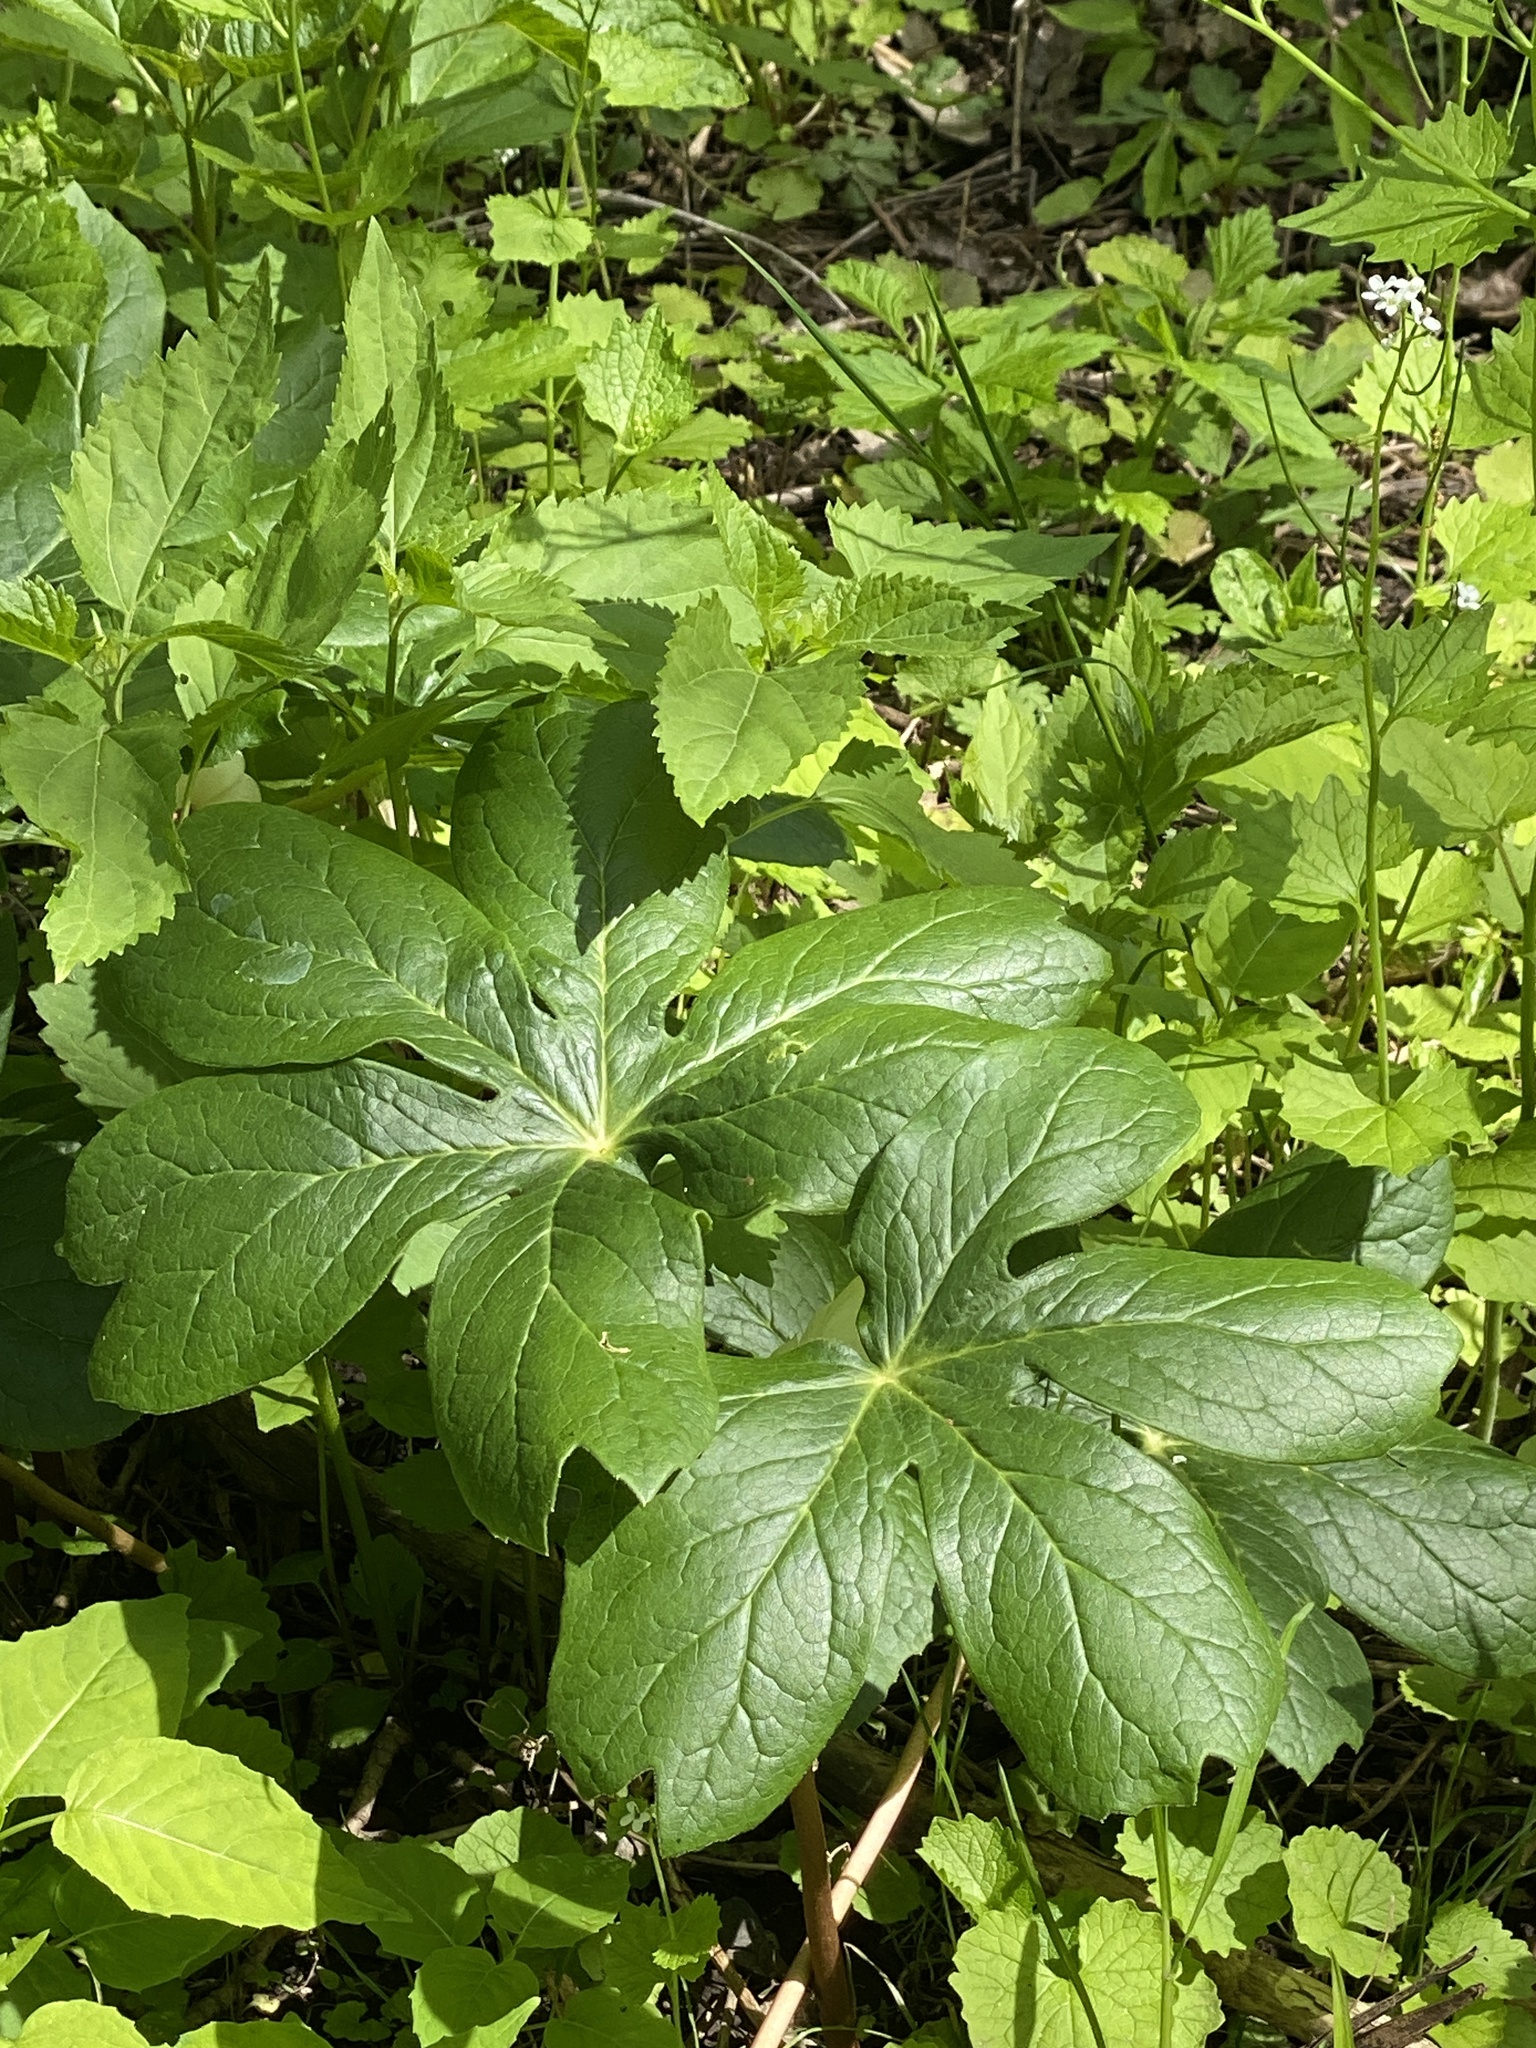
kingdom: Plantae
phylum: Tracheophyta
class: Magnoliopsida
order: Ranunculales
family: Berberidaceae
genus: Podophyllum
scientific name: Podophyllum peltatum
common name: Wild mandrake
